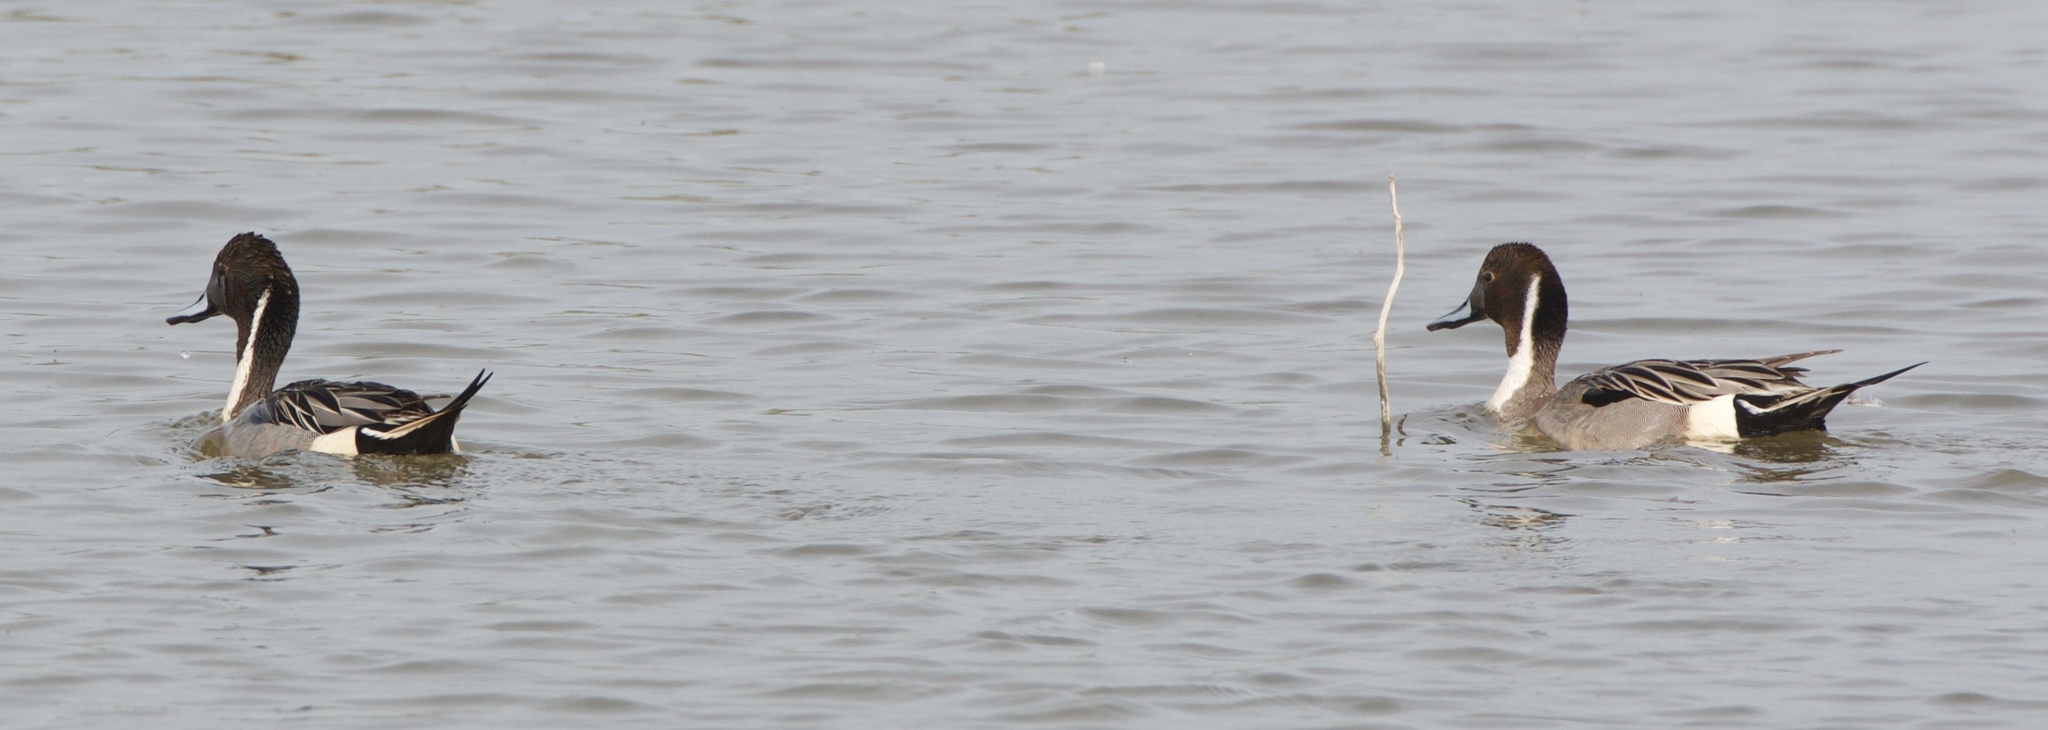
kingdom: Animalia
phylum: Chordata
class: Aves
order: Anseriformes
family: Anatidae
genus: Anas
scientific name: Anas acuta
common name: Northern pintail
